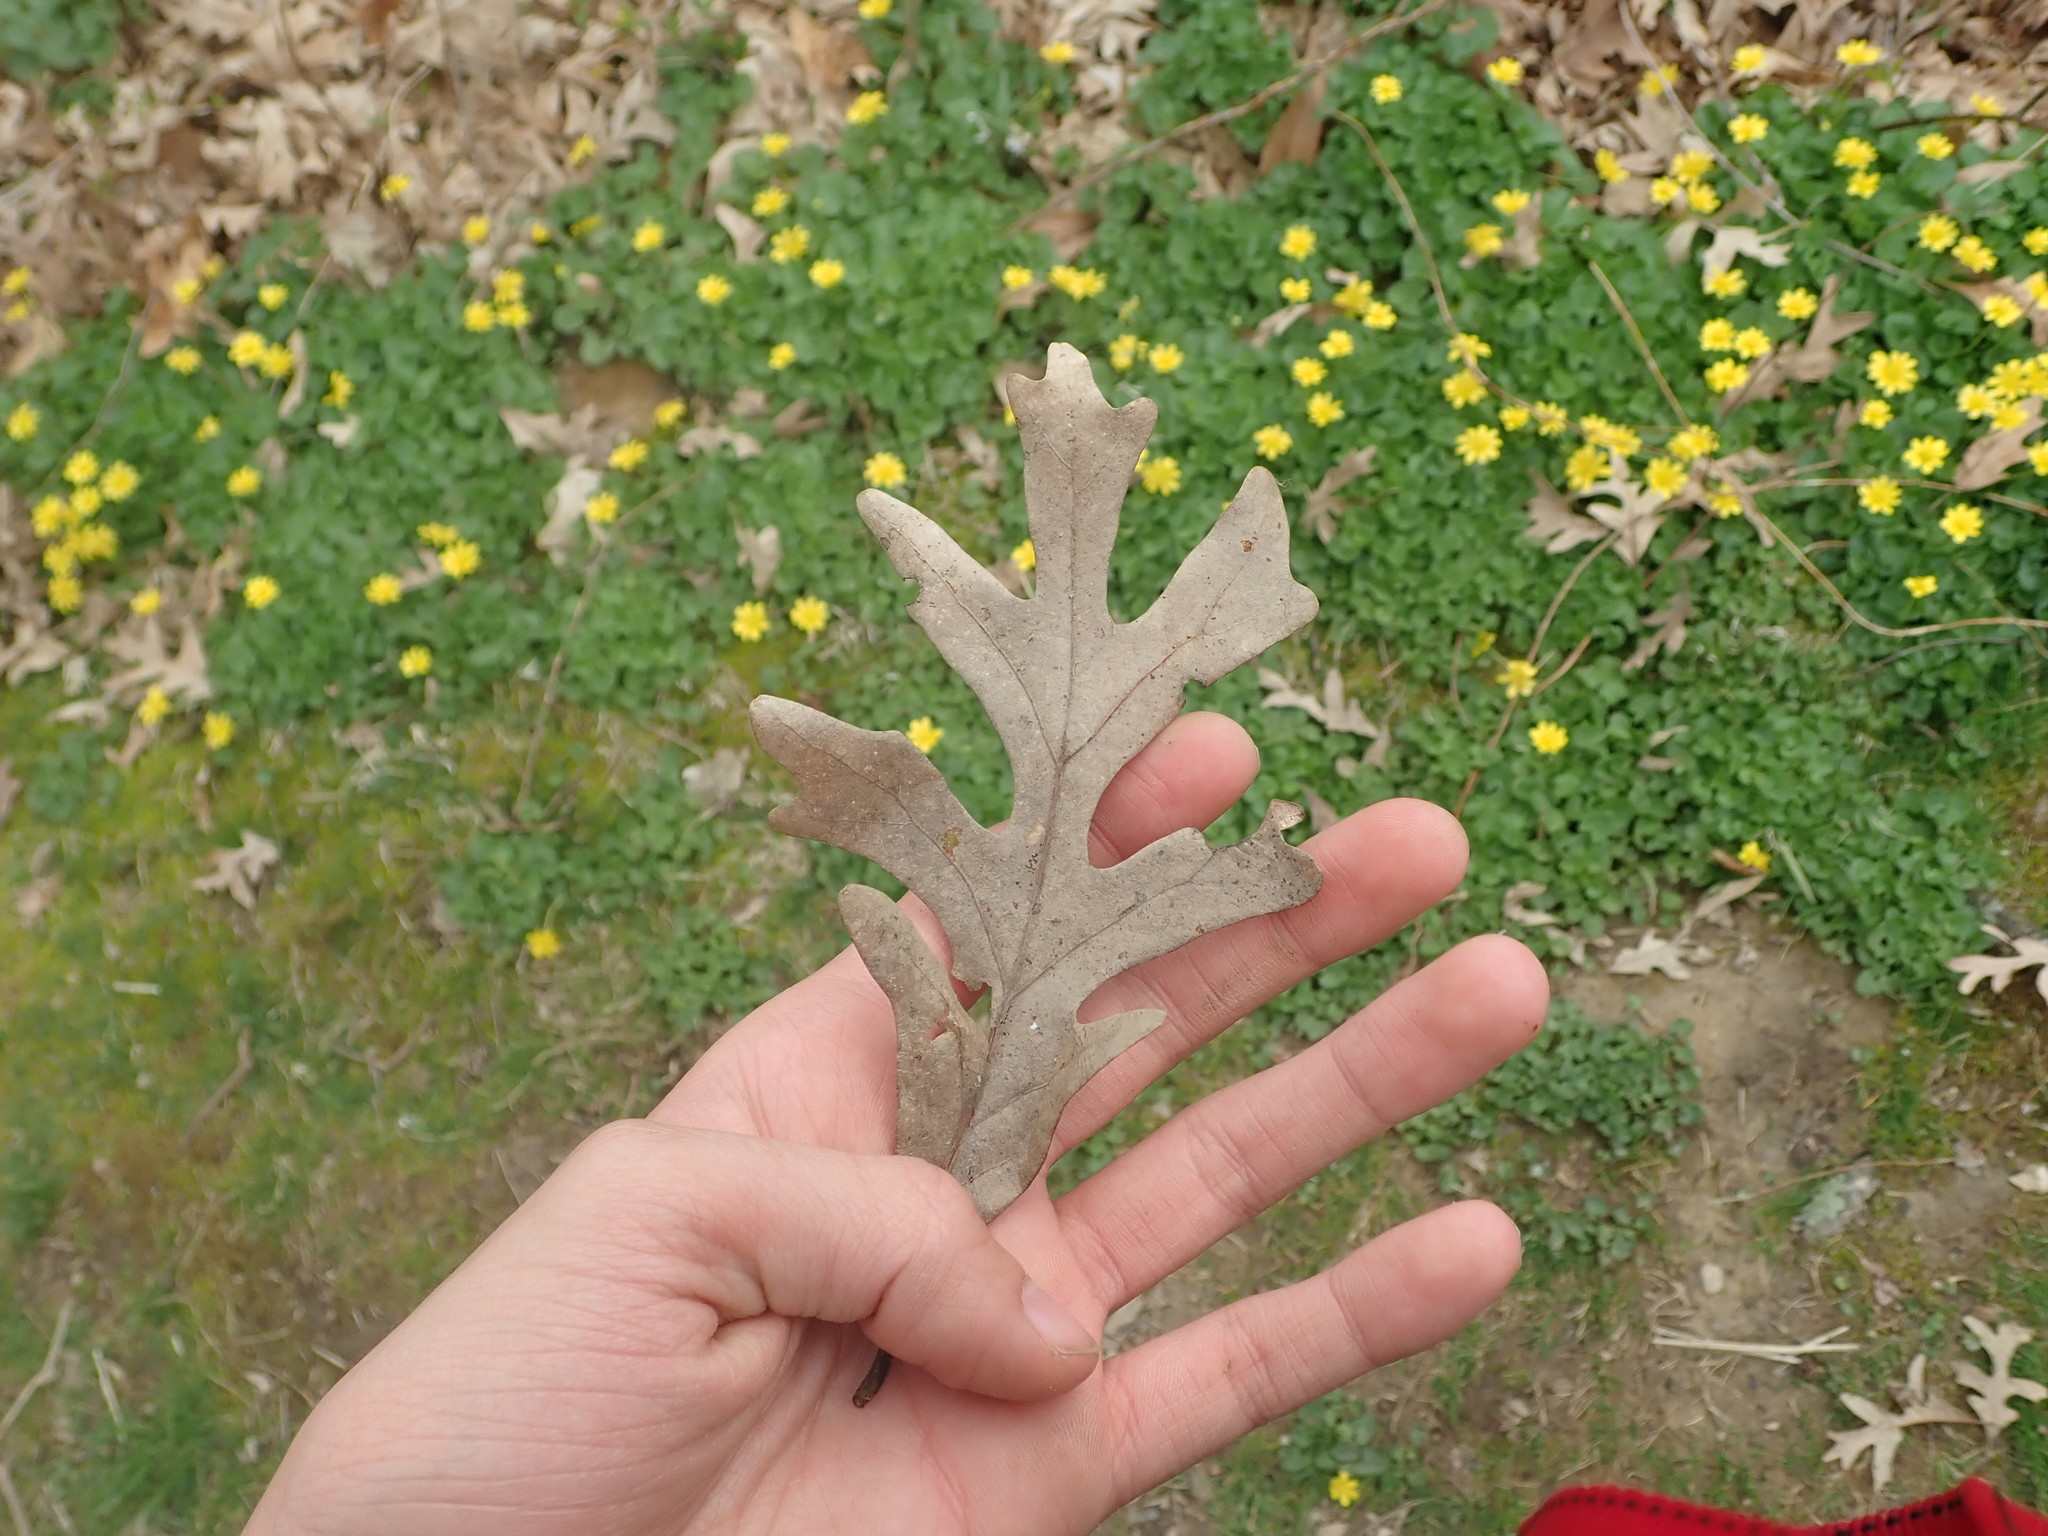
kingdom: Plantae
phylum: Tracheophyta
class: Magnoliopsida
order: Fagales
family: Fagaceae
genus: Quercus
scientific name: Quercus alba
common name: White oak
